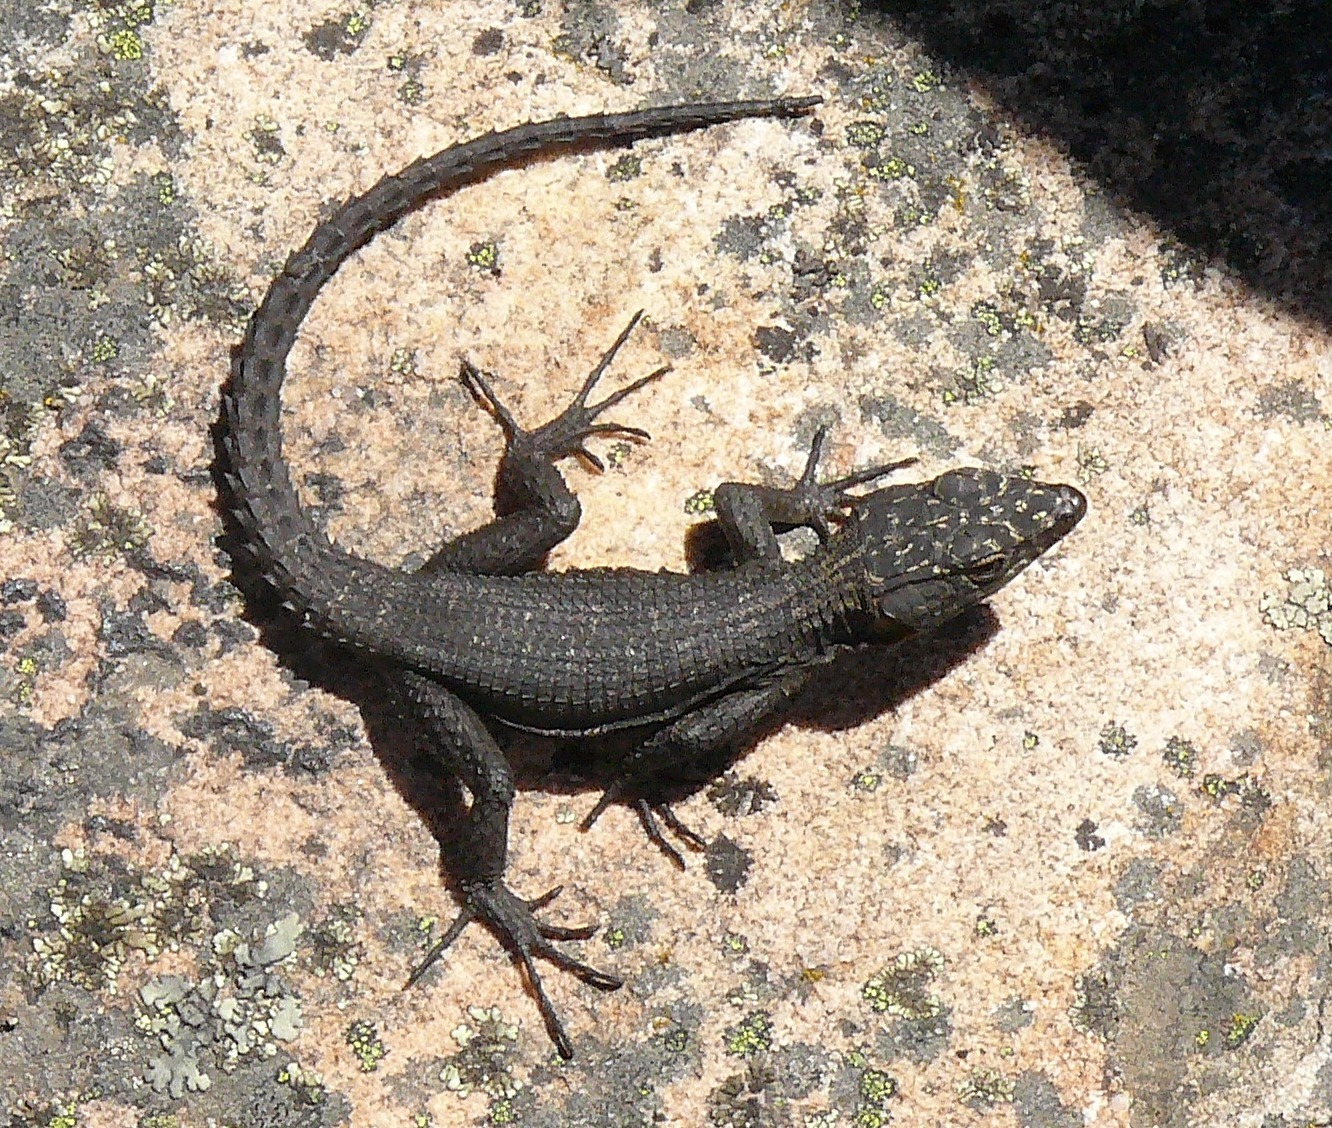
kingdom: Animalia
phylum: Chordata
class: Squamata
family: Cordylidae
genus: Hemicordylus
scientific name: Hemicordylus capensis
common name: Graceful crag lizard
